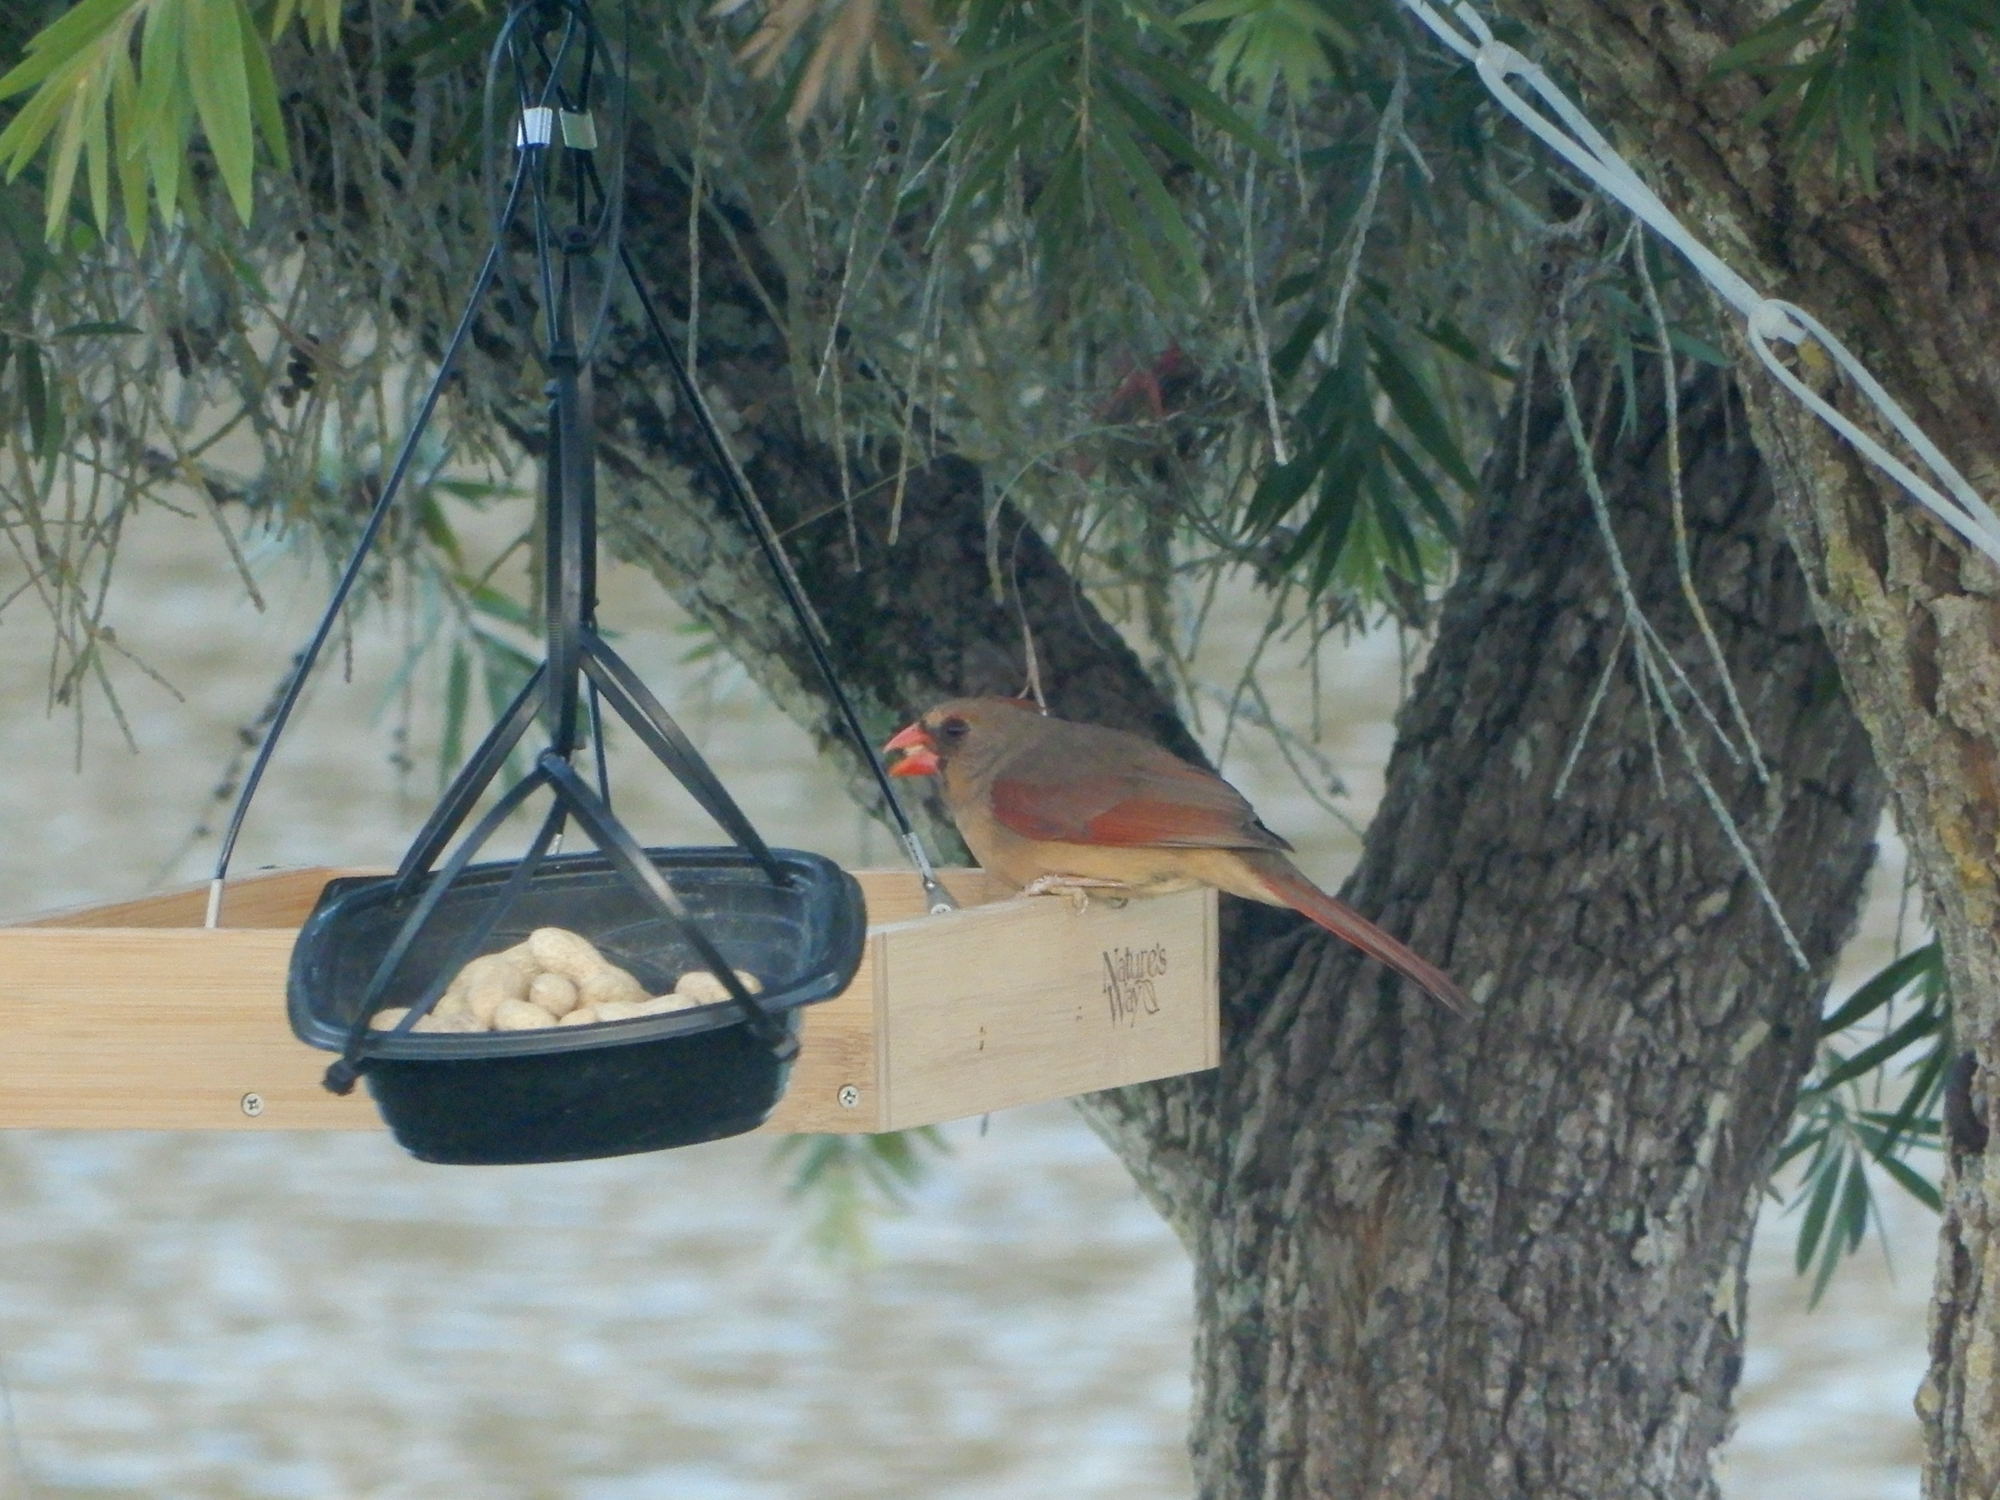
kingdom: Animalia
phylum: Chordata
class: Aves
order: Passeriformes
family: Cardinalidae
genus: Cardinalis
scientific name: Cardinalis cardinalis
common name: Northern cardinal
